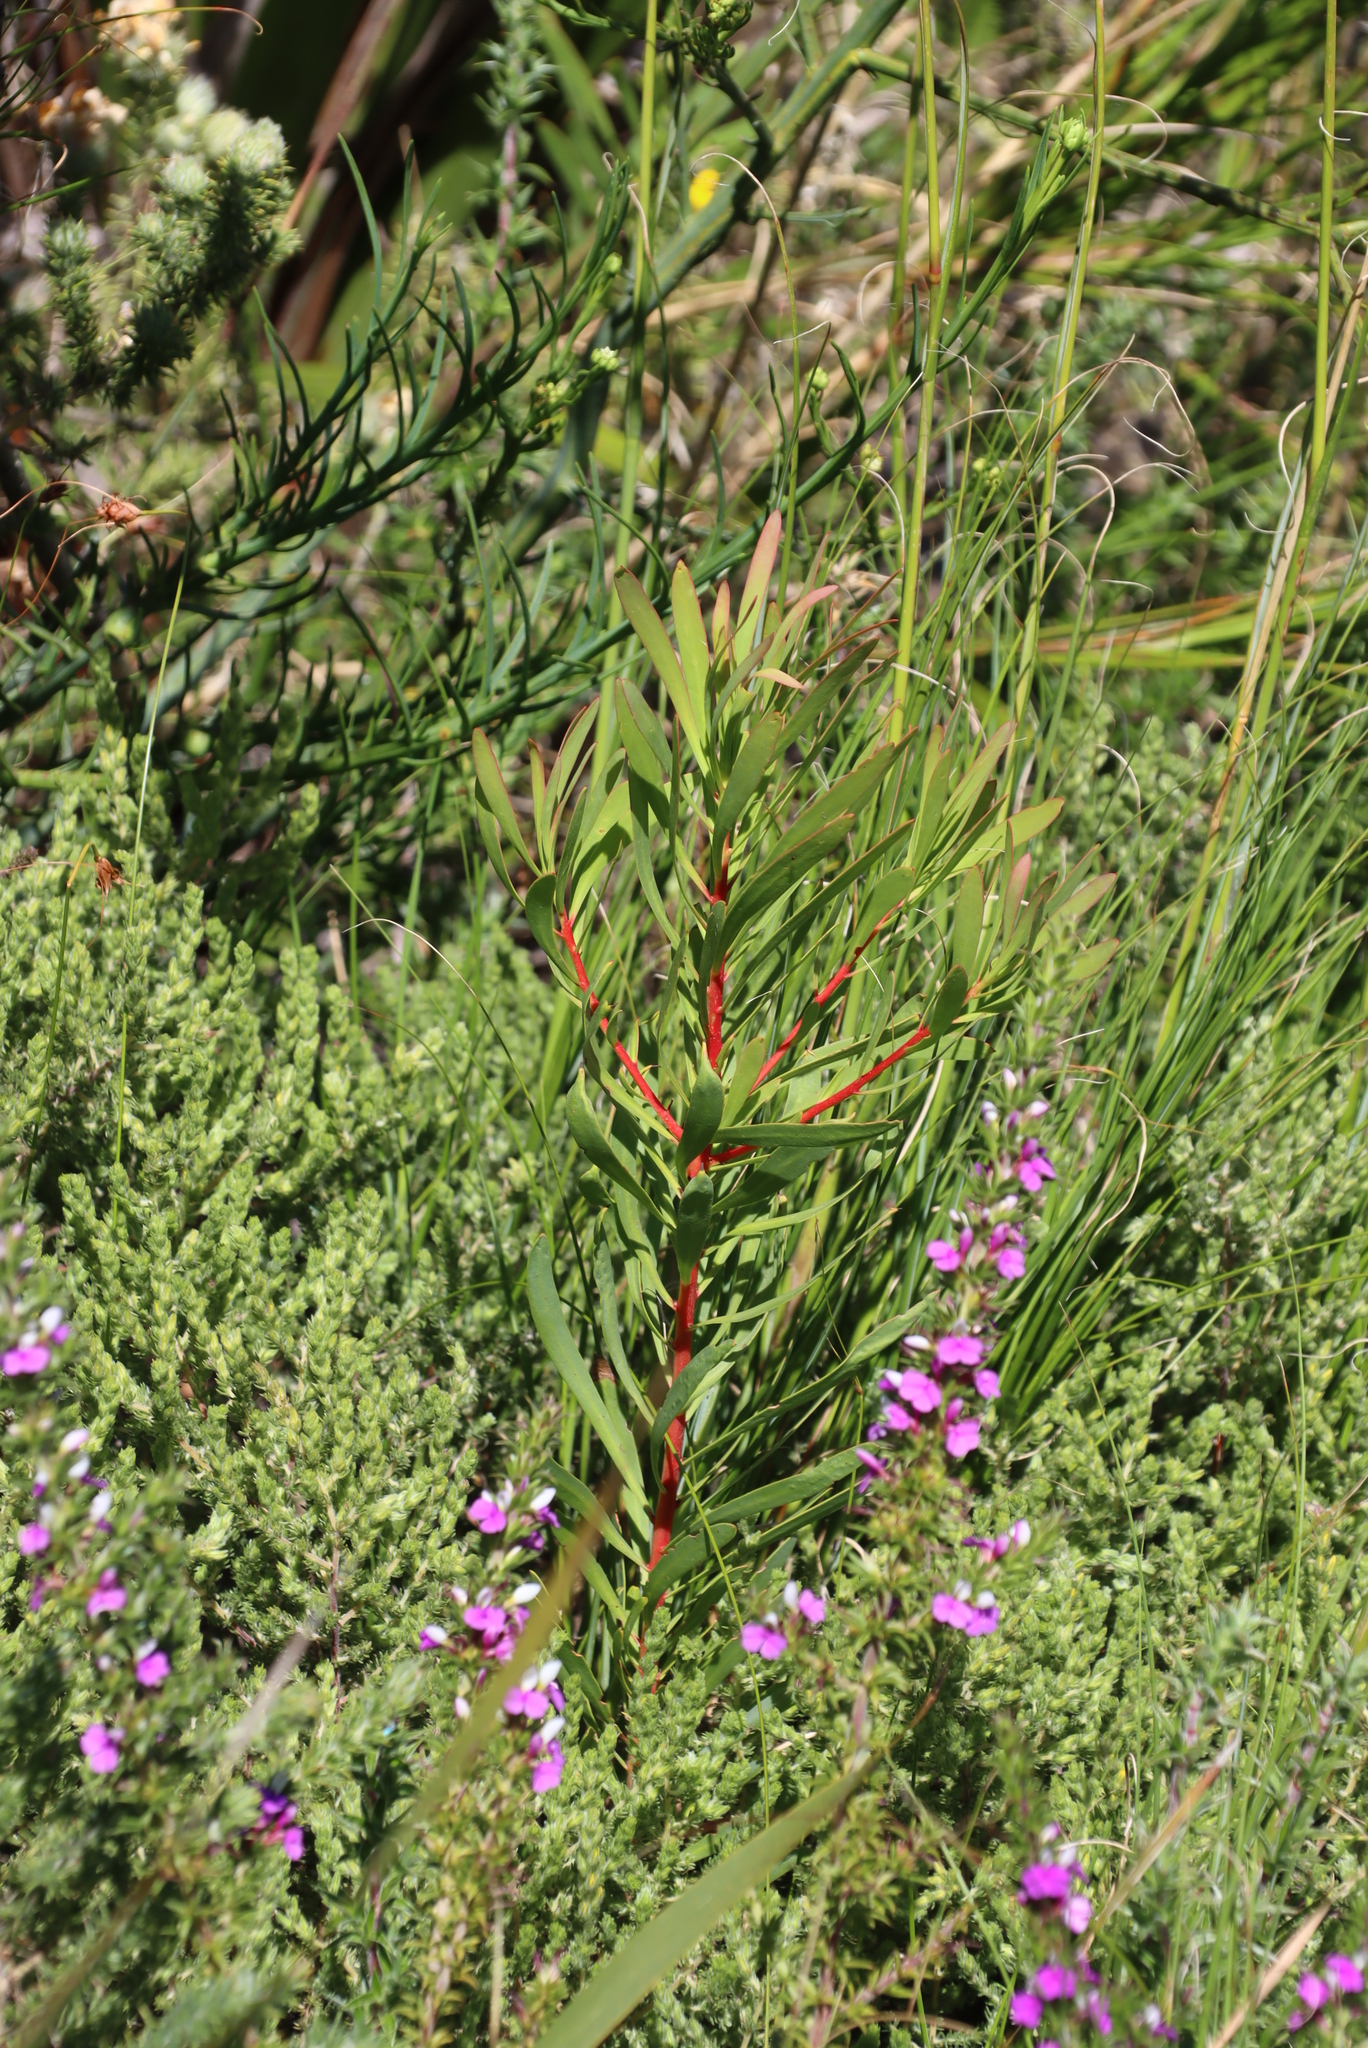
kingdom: Plantae
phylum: Tracheophyta
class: Magnoliopsida
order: Proteales
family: Proteaceae
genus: Protea
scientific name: Protea repens
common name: Sugarbush
